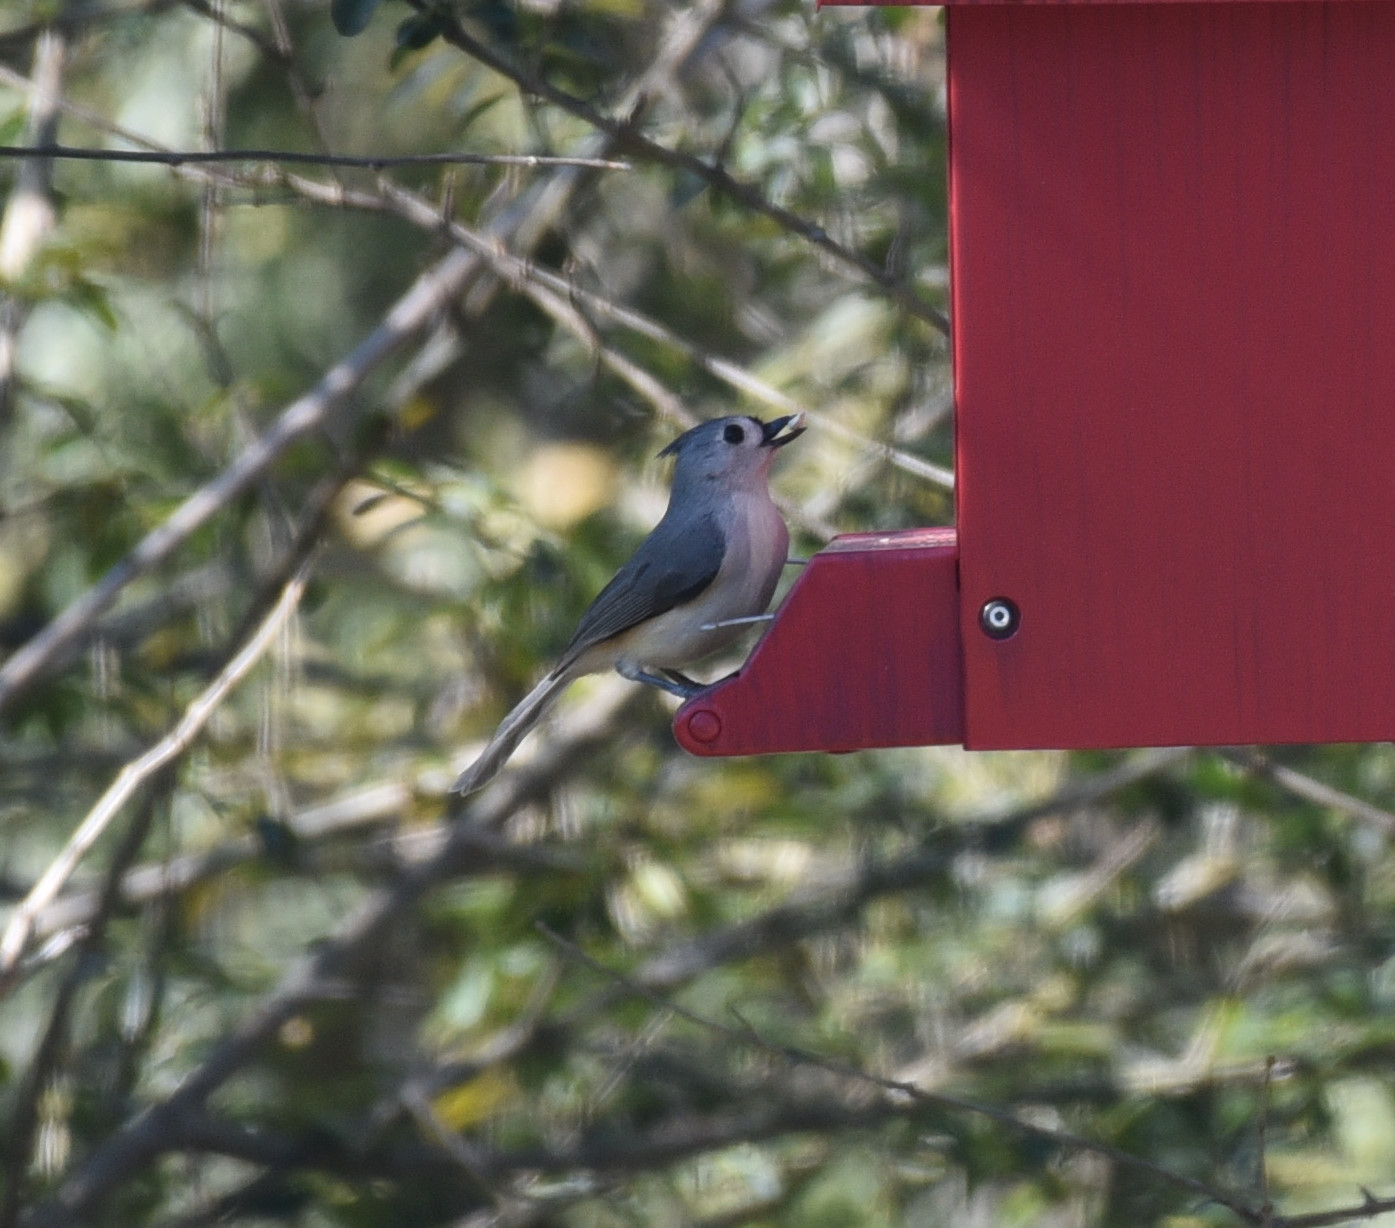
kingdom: Animalia
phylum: Chordata
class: Aves
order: Passeriformes
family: Paridae
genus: Baeolophus
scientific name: Baeolophus bicolor
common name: Tufted titmouse
